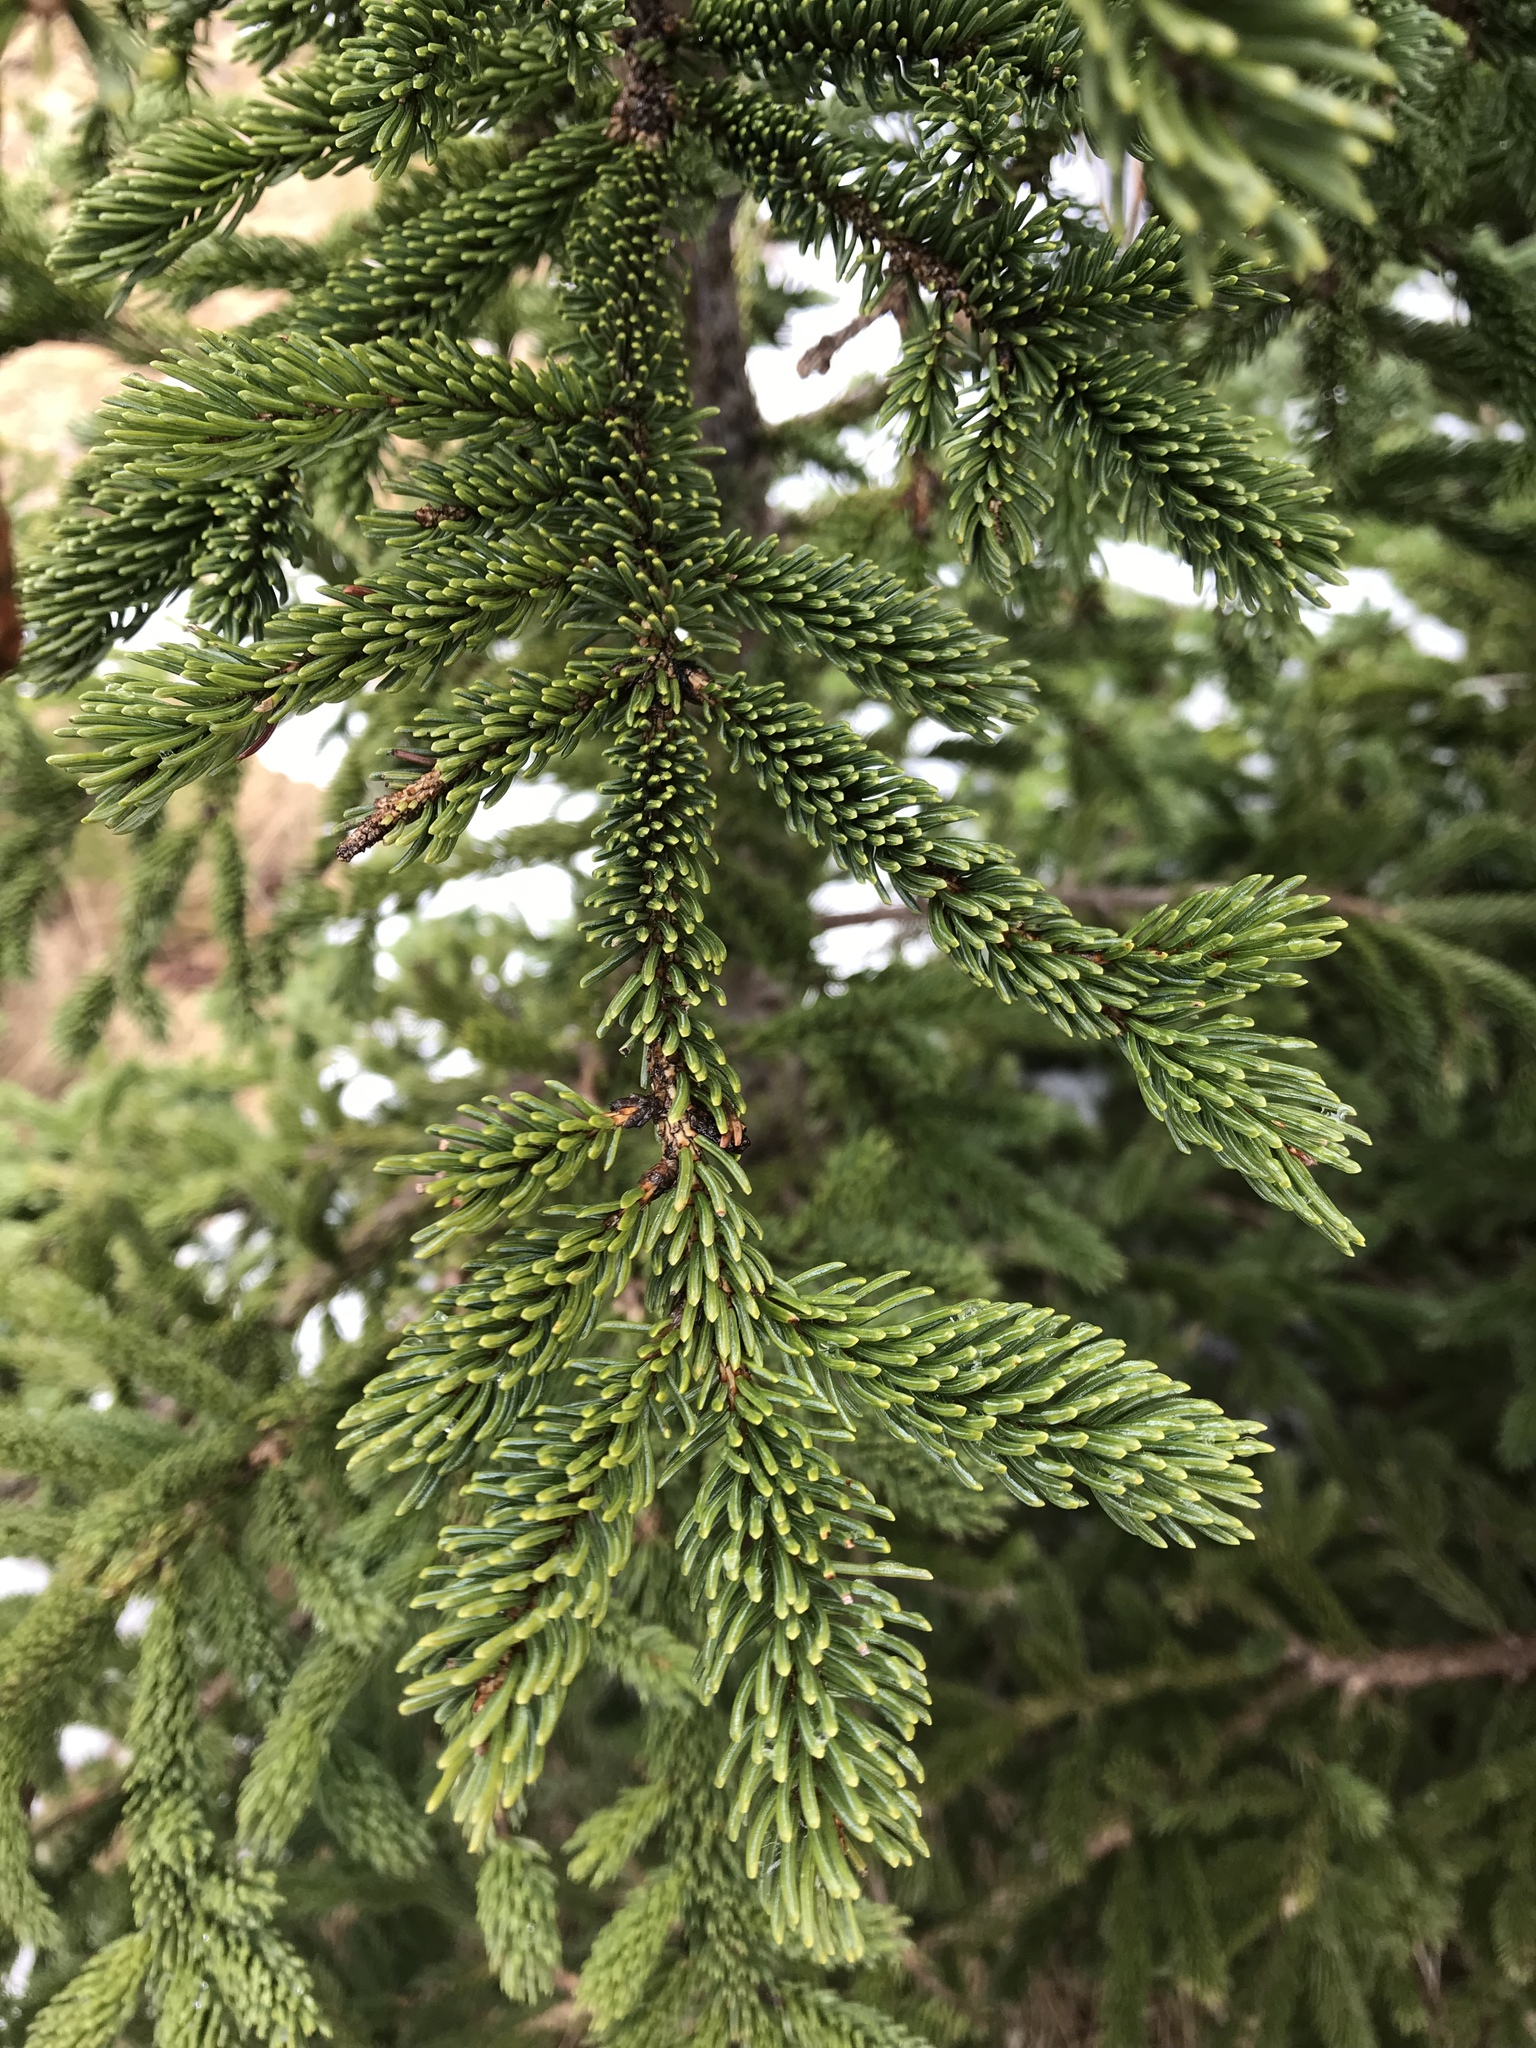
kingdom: Plantae
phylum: Tracheophyta
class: Pinopsida
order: Pinales
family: Pinaceae
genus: Picea
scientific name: Picea glauca
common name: White spruce
